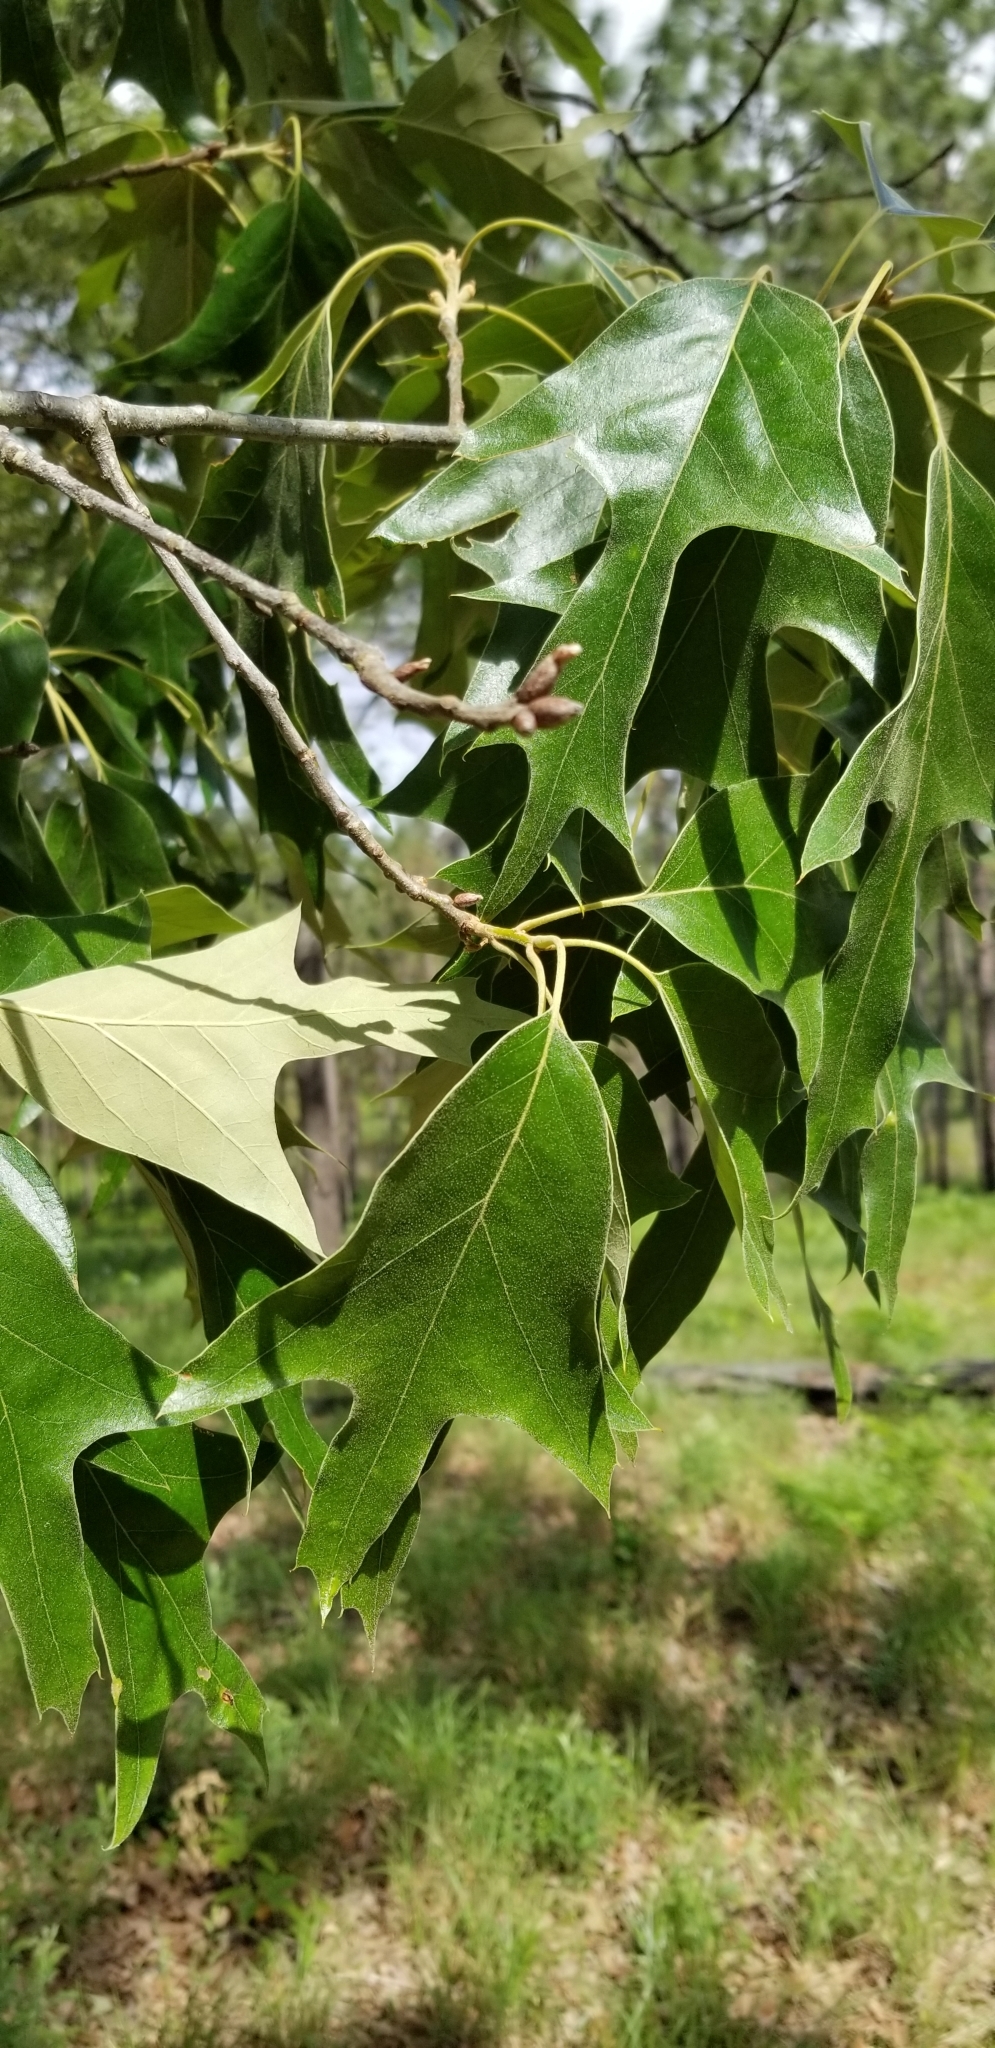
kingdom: Plantae
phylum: Tracheophyta
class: Magnoliopsida
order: Fagales
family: Fagaceae
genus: Quercus
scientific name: Quercus falcata
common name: Southern red oak
